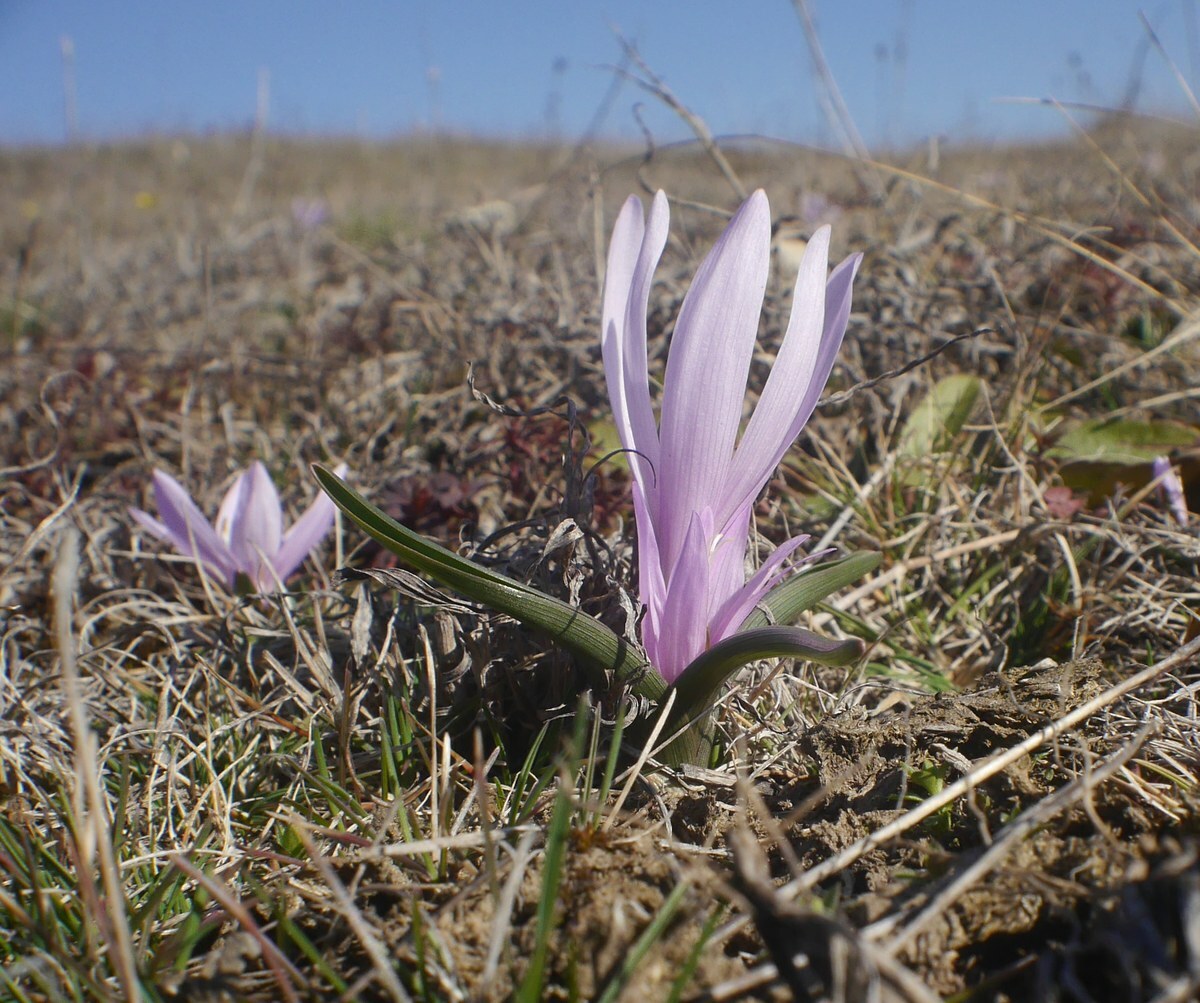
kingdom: Plantae
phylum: Tracheophyta
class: Liliopsida
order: Liliales
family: Colchicaceae
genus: Colchicum
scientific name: Colchicum bulbocodium
